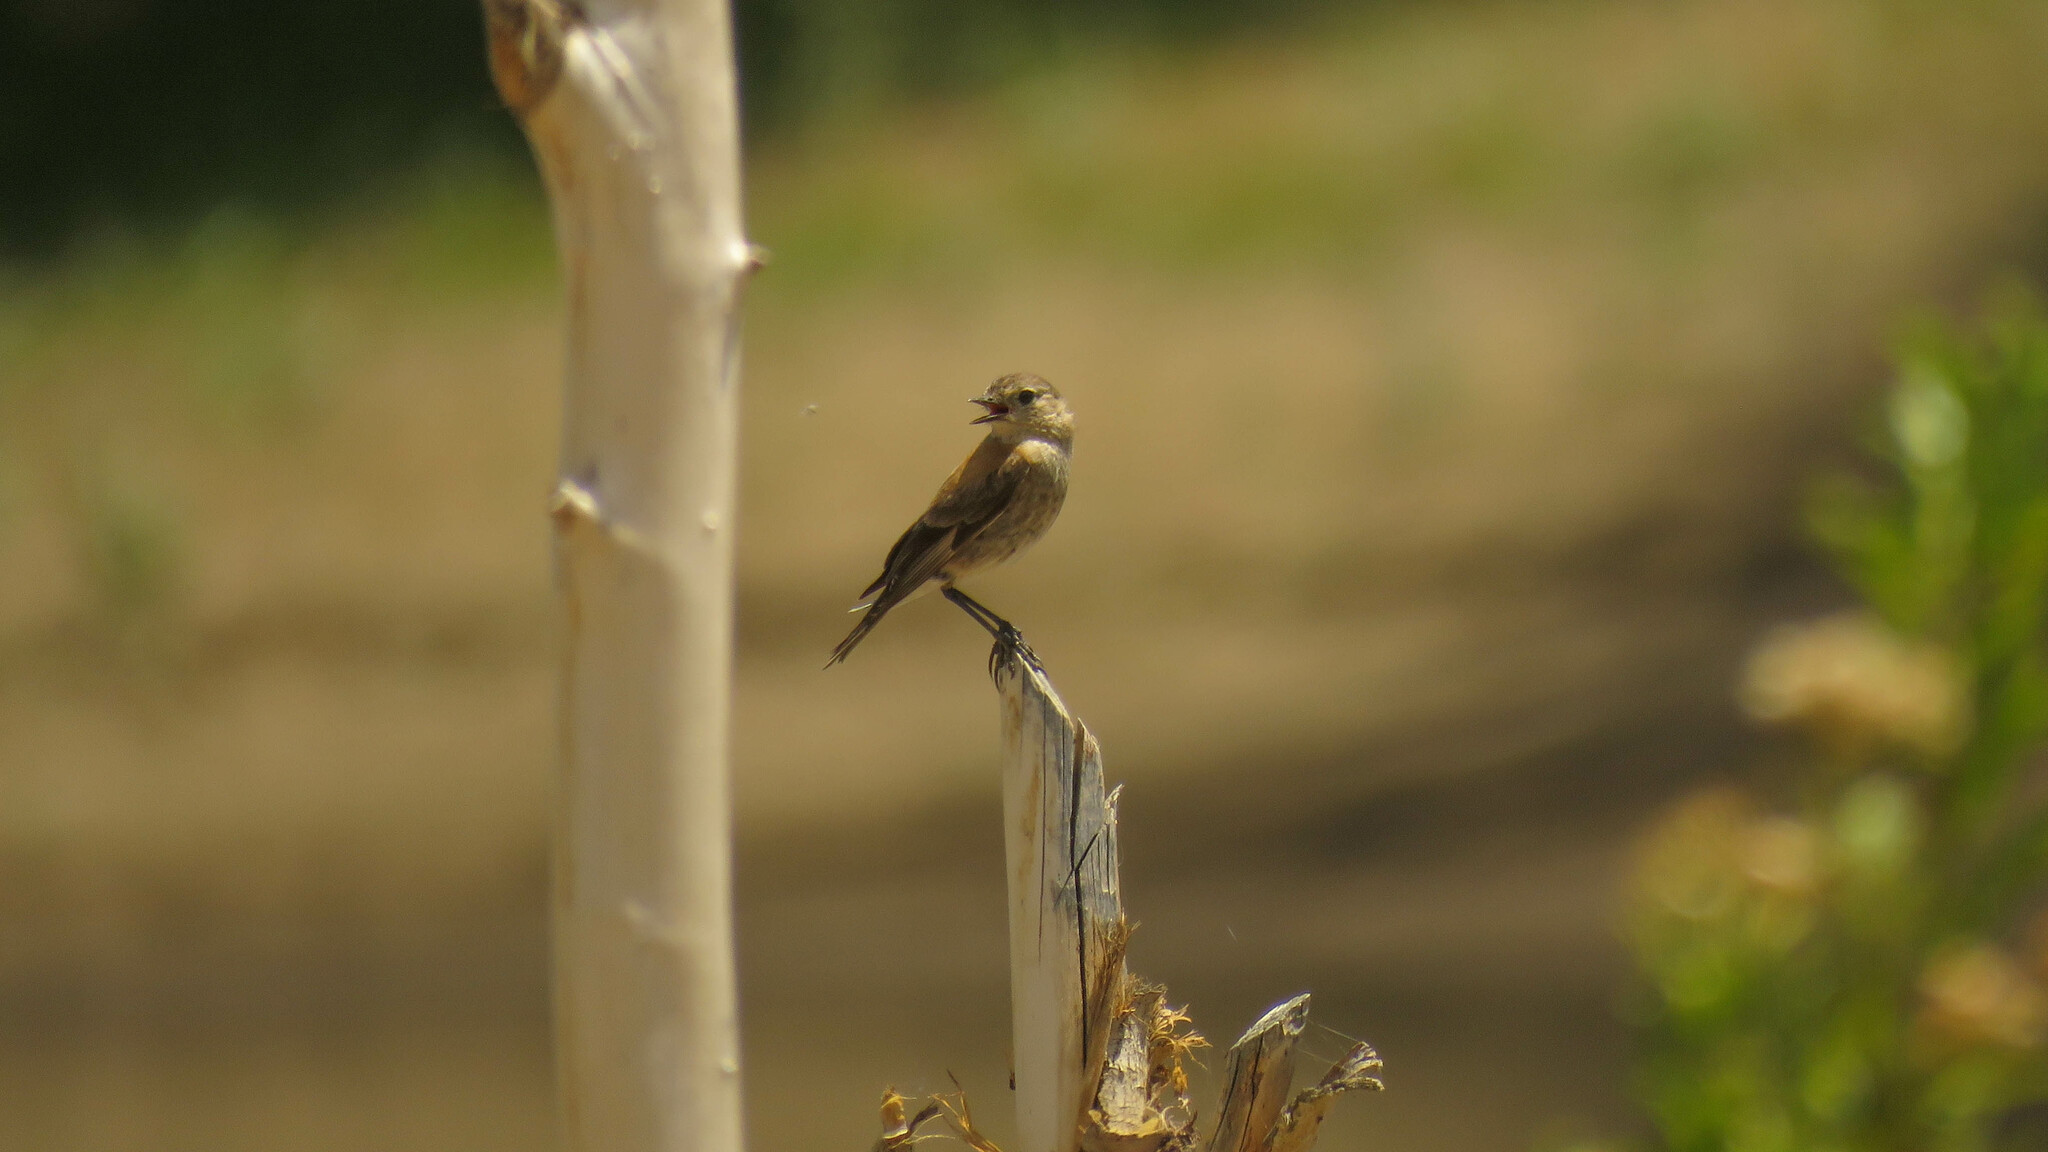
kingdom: Animalia
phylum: Chordata
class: Aves
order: Passeriformes
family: Tyrannidae
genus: Lessonia
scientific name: Lessonia rufa
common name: Austral negrito
